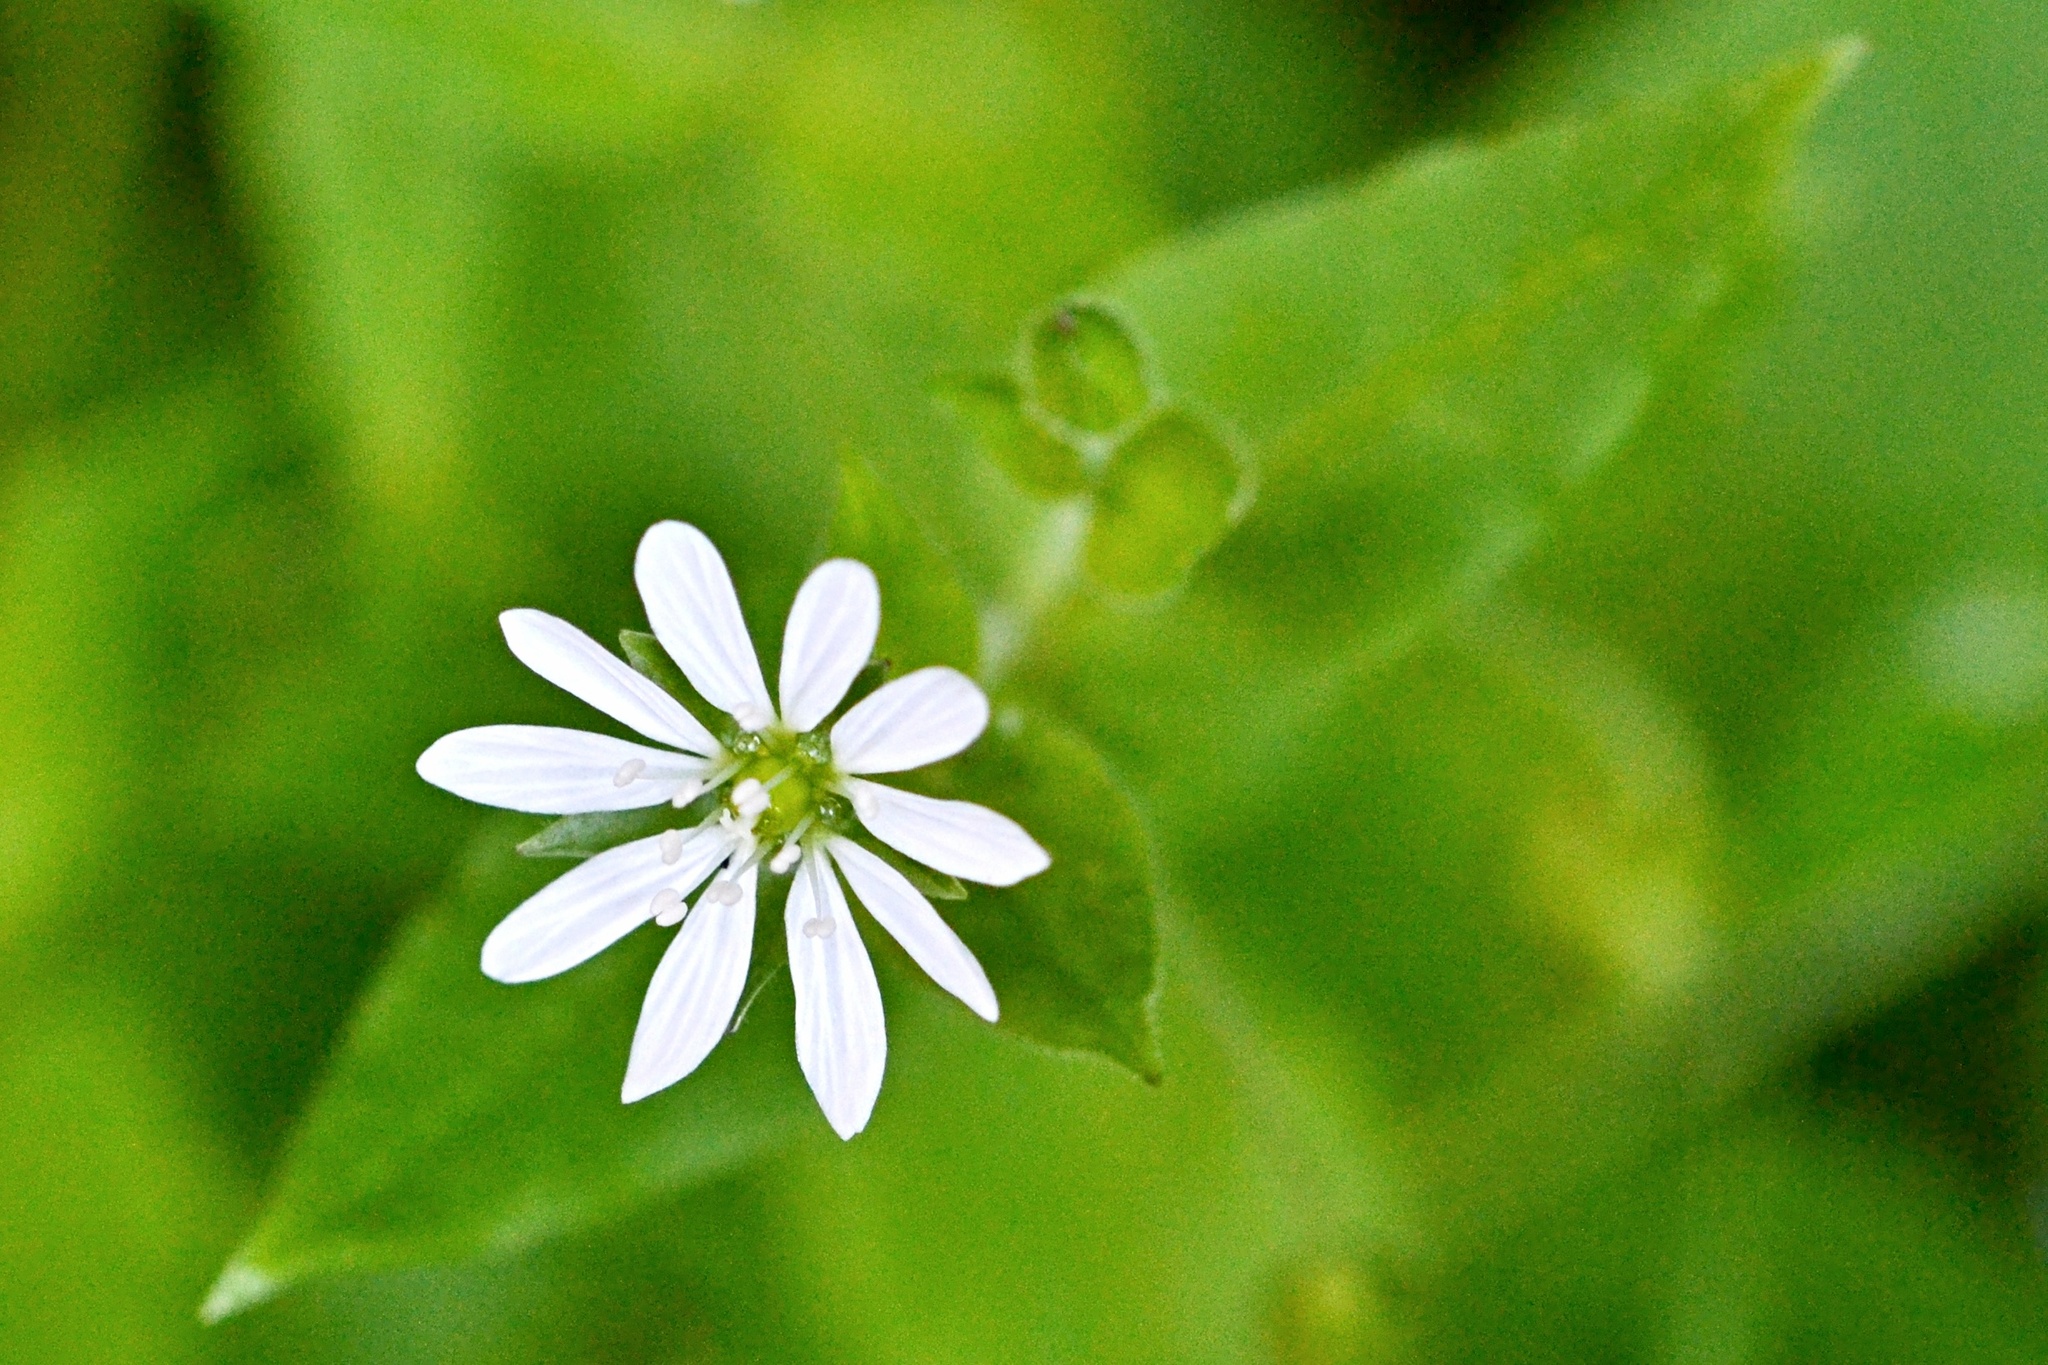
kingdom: Plantae
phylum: Tracheophyta
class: Magnoliopsida
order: Caryophyllales
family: Caryophyllaceae
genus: Stellaria
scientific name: Stellaria aquatica
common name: Water chickweed
